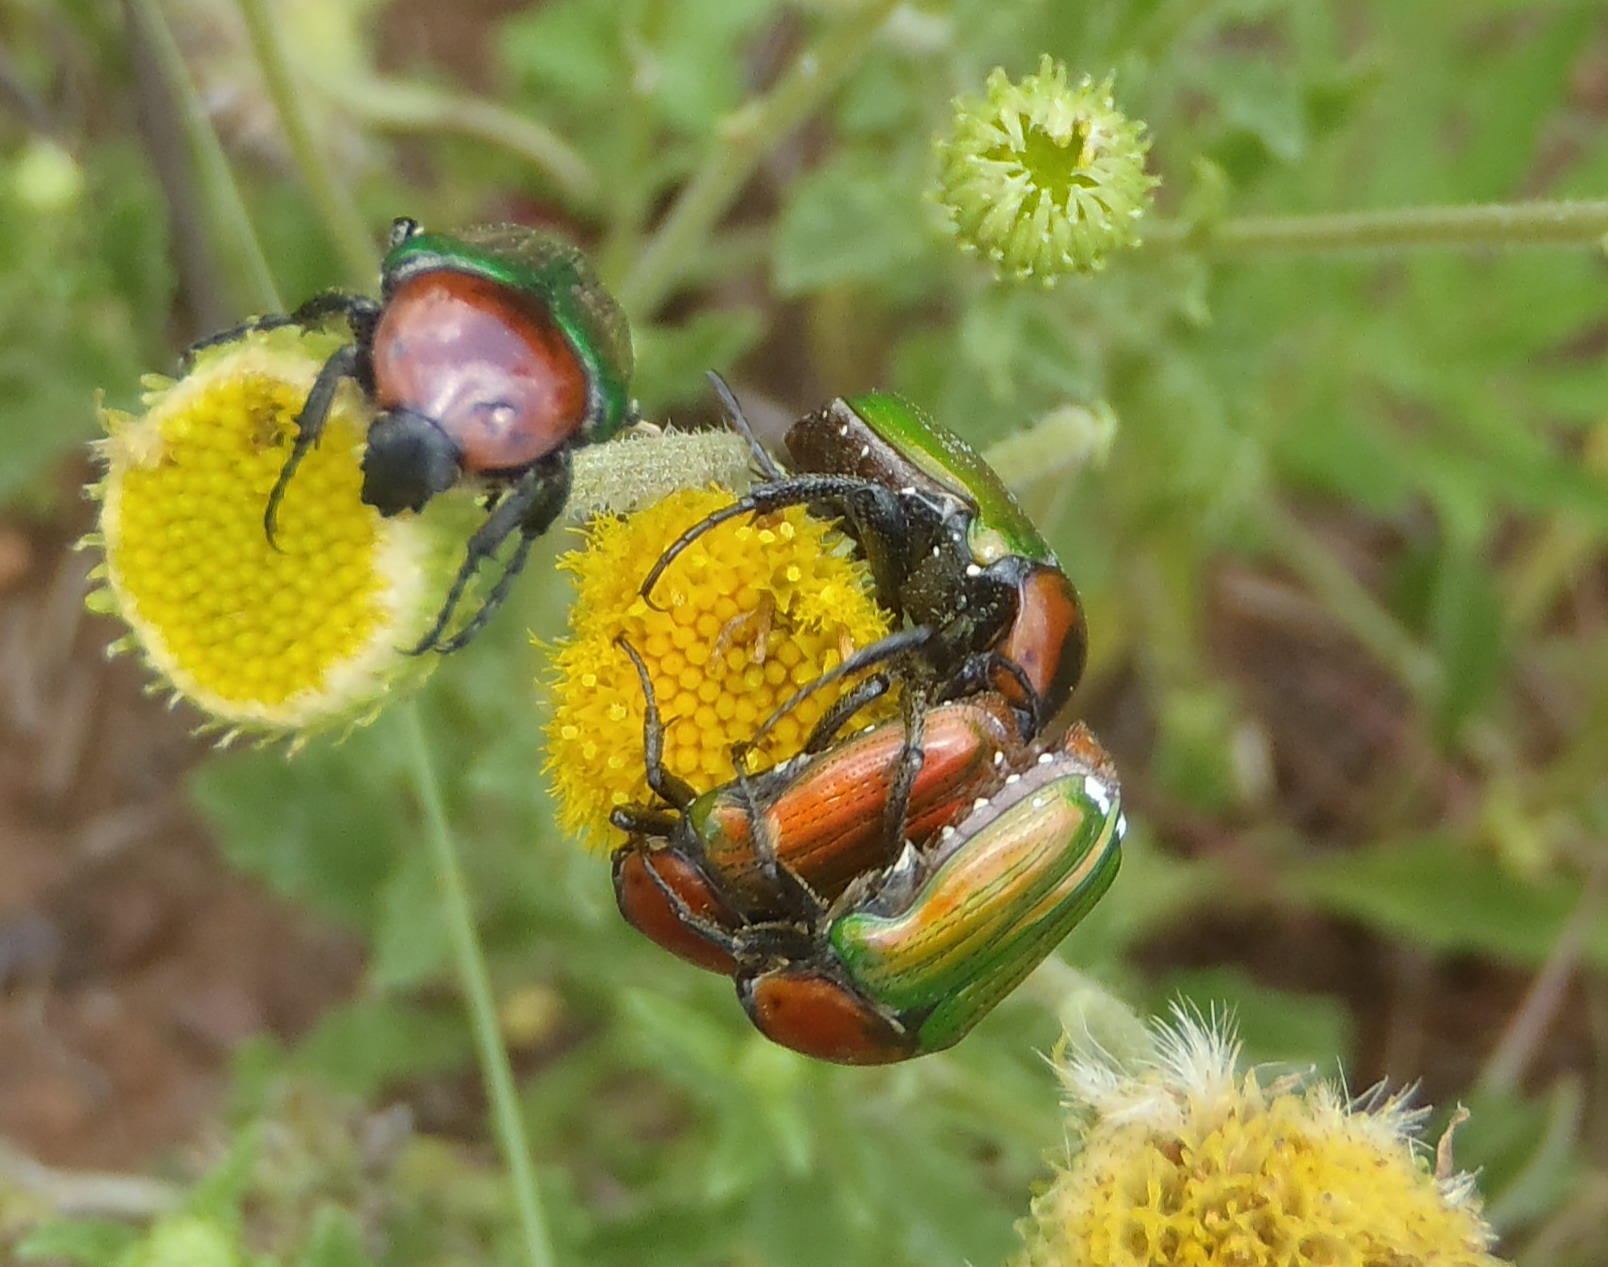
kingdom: Animalia
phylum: Arthropoda
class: Insecta
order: Coleoptera
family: Scarabaeidae
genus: Leucocelis
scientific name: Leucocelis haemorrhoidalis
